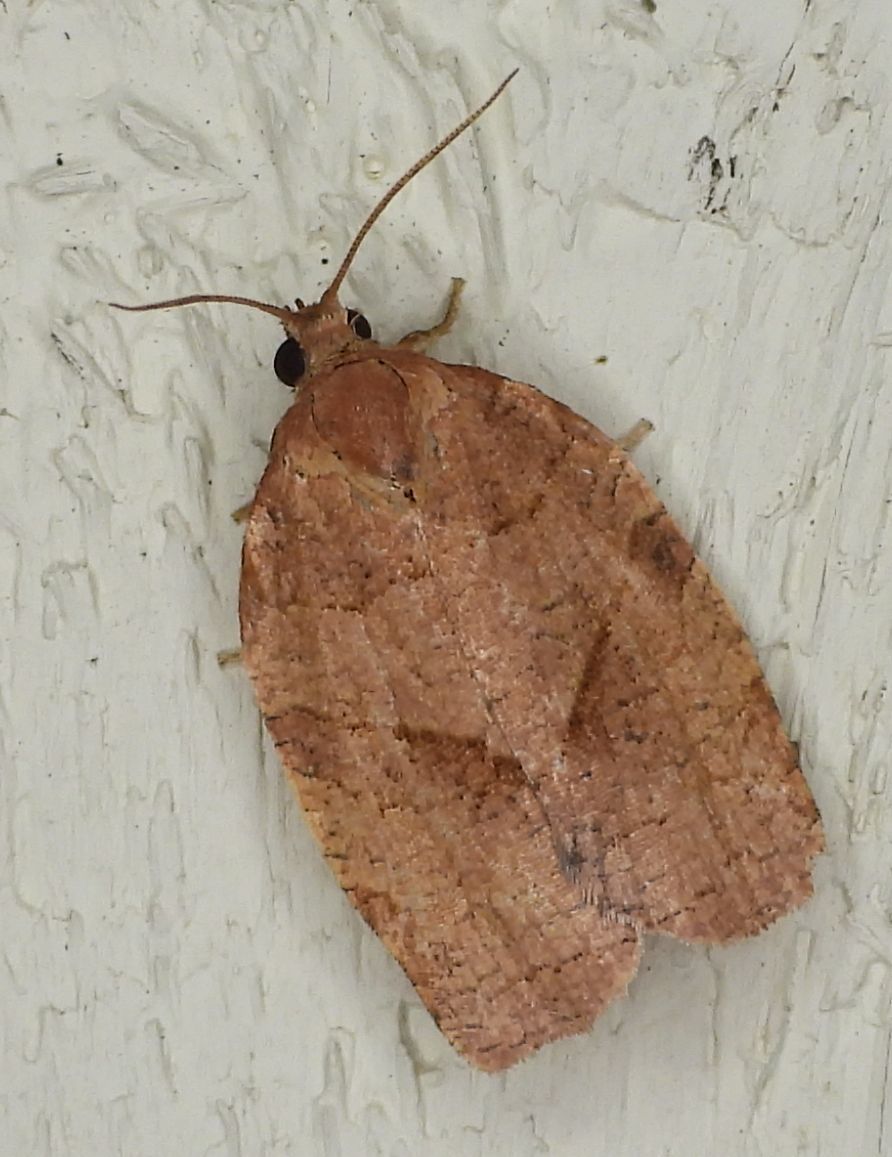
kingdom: Animalia
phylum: Arthropoda
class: Insecta
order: Lepidoptera
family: Tortricidae
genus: Choristoneura
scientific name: Choristoneura rosaceana
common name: Oblique-banded leafroller moth
